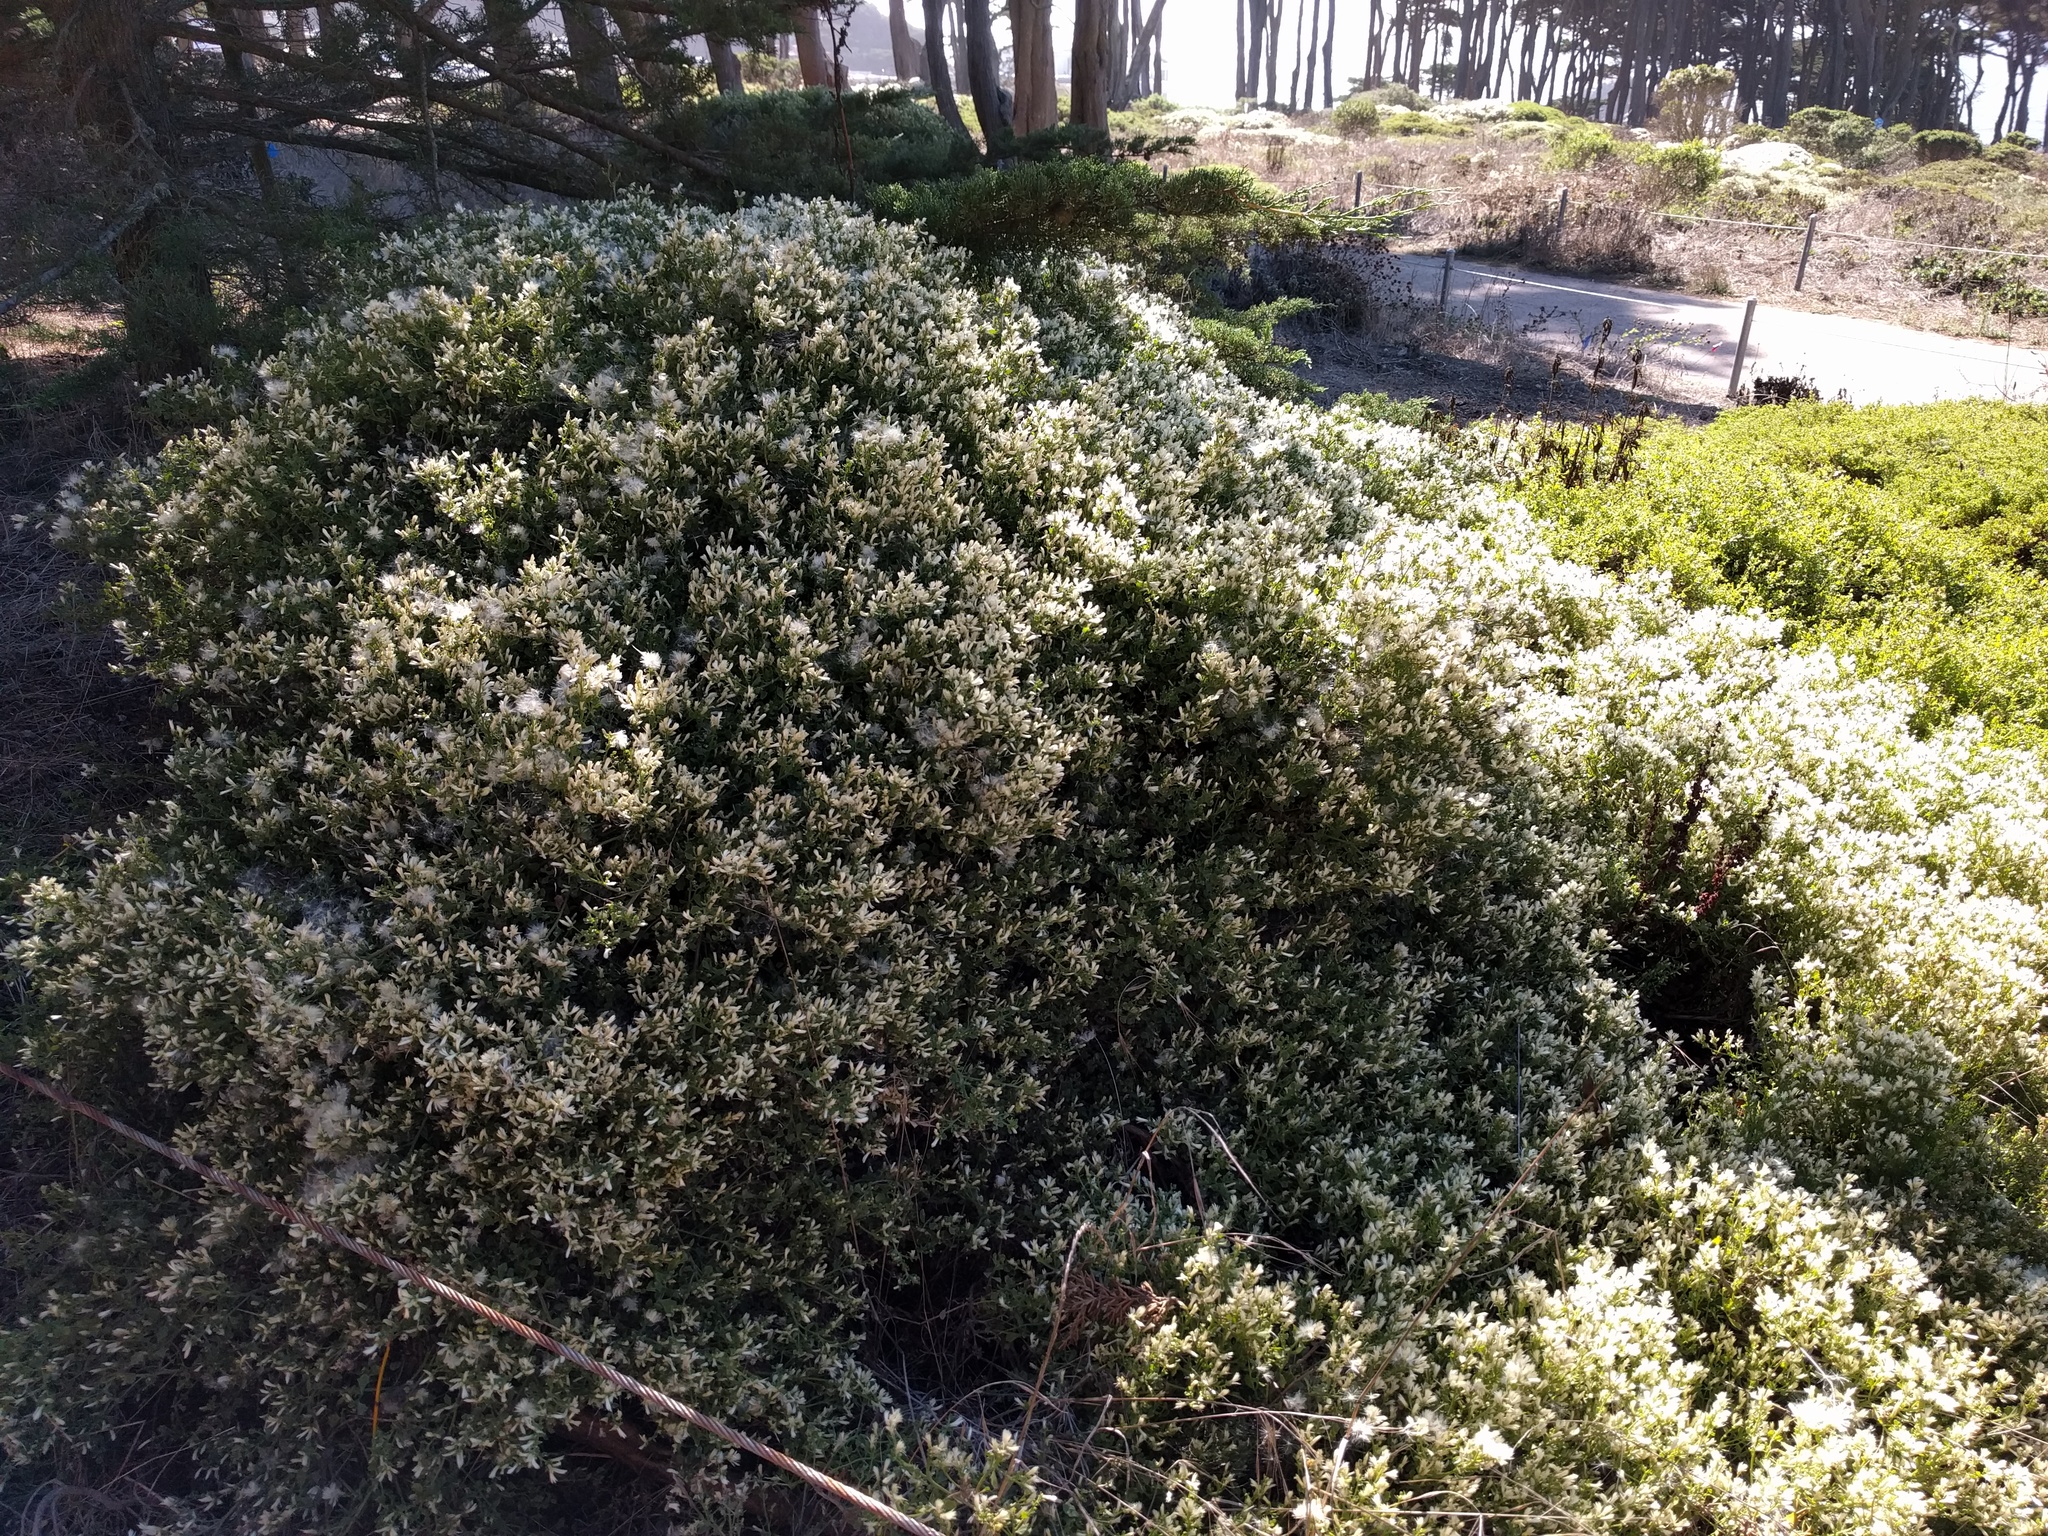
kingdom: Plantae
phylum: Tracheophyta
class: Magnoliopsida
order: Asterales
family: Asteraceae
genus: Baccharis
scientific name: Baccharis pilularis
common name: Coyotebrush
